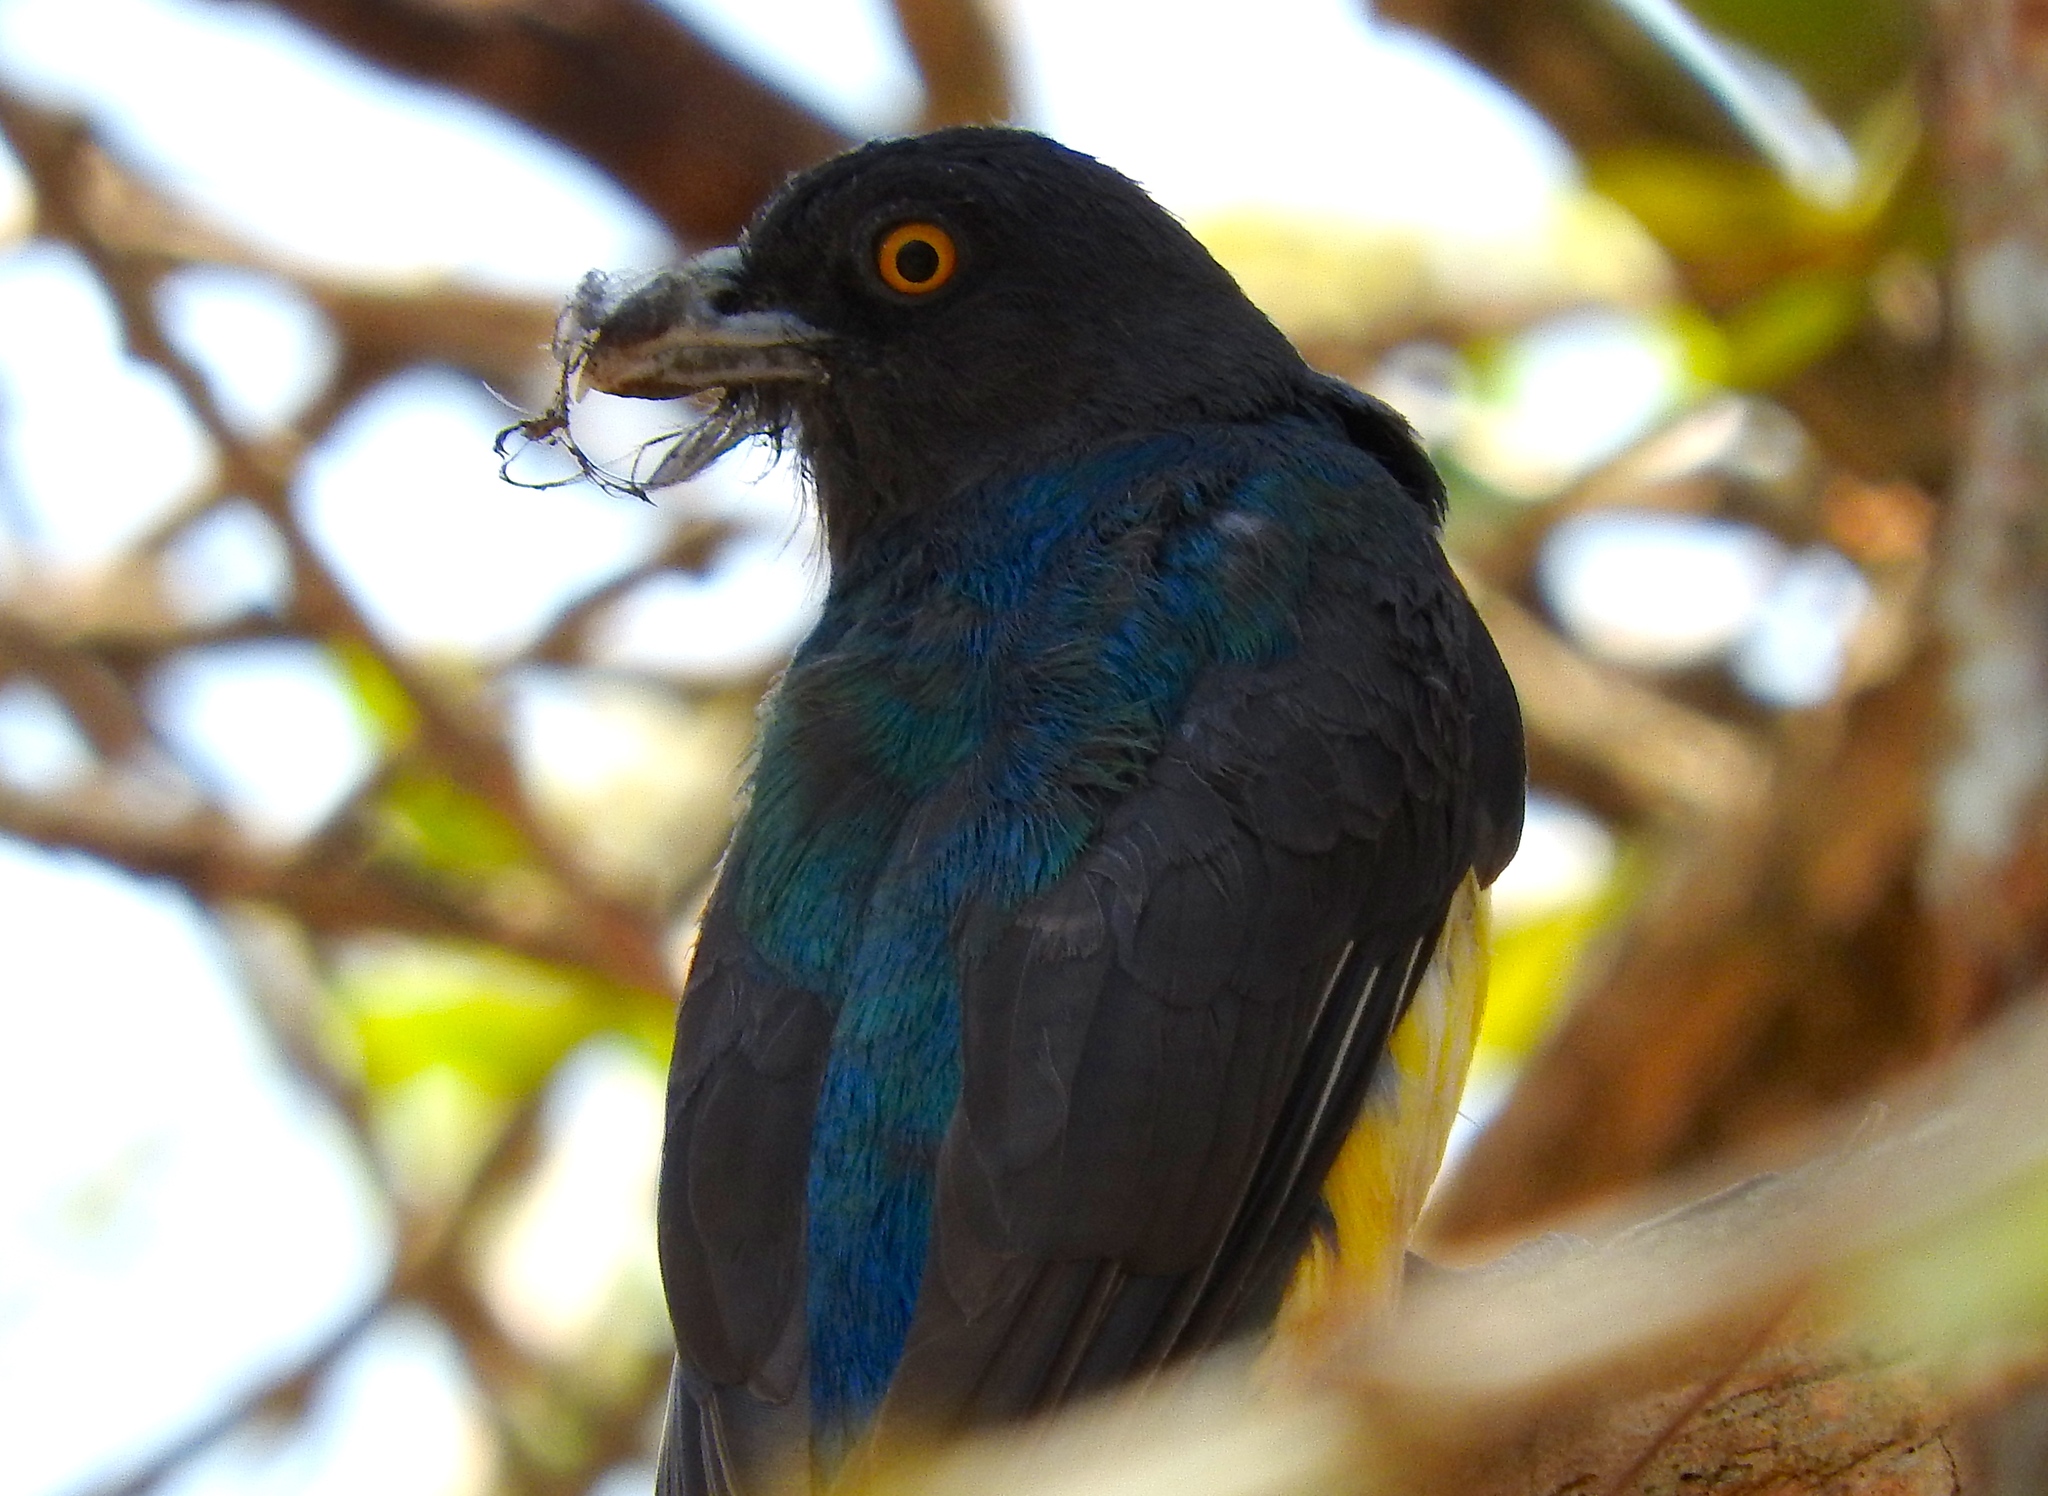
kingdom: Animalia
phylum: Chordata
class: Aves
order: Trogoniformes
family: Trogonidae
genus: Trogon
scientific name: Trogon citreolus
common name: Citreoline trogon
